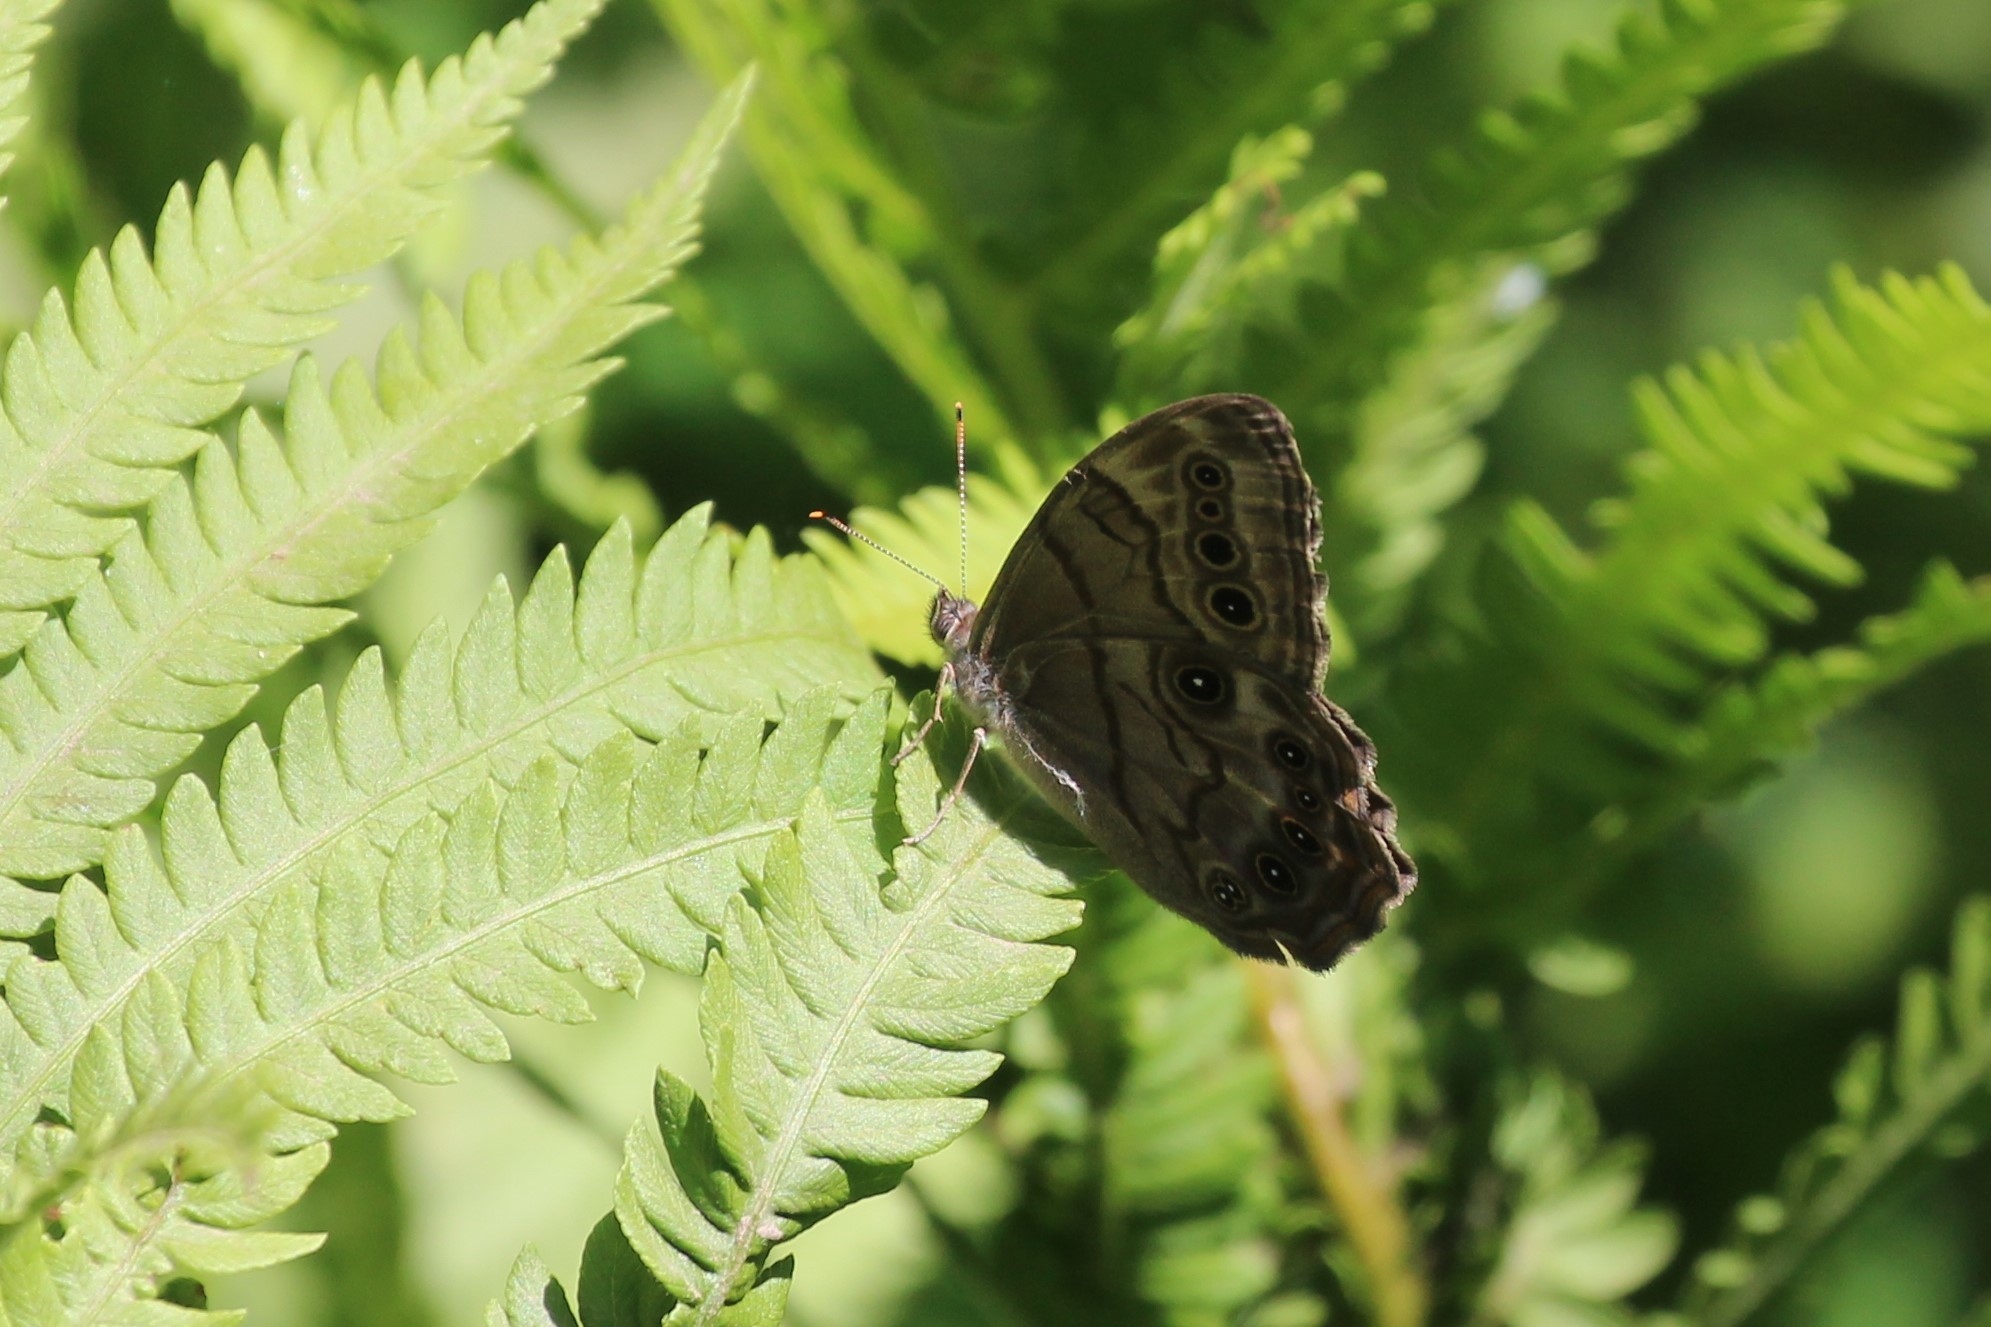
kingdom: Animalia
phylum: Arthropoda
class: Insecta
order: Lepidoptera
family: Nymphalidae
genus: Lethe
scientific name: Lethe anthedon
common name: Northern pearly-eye
